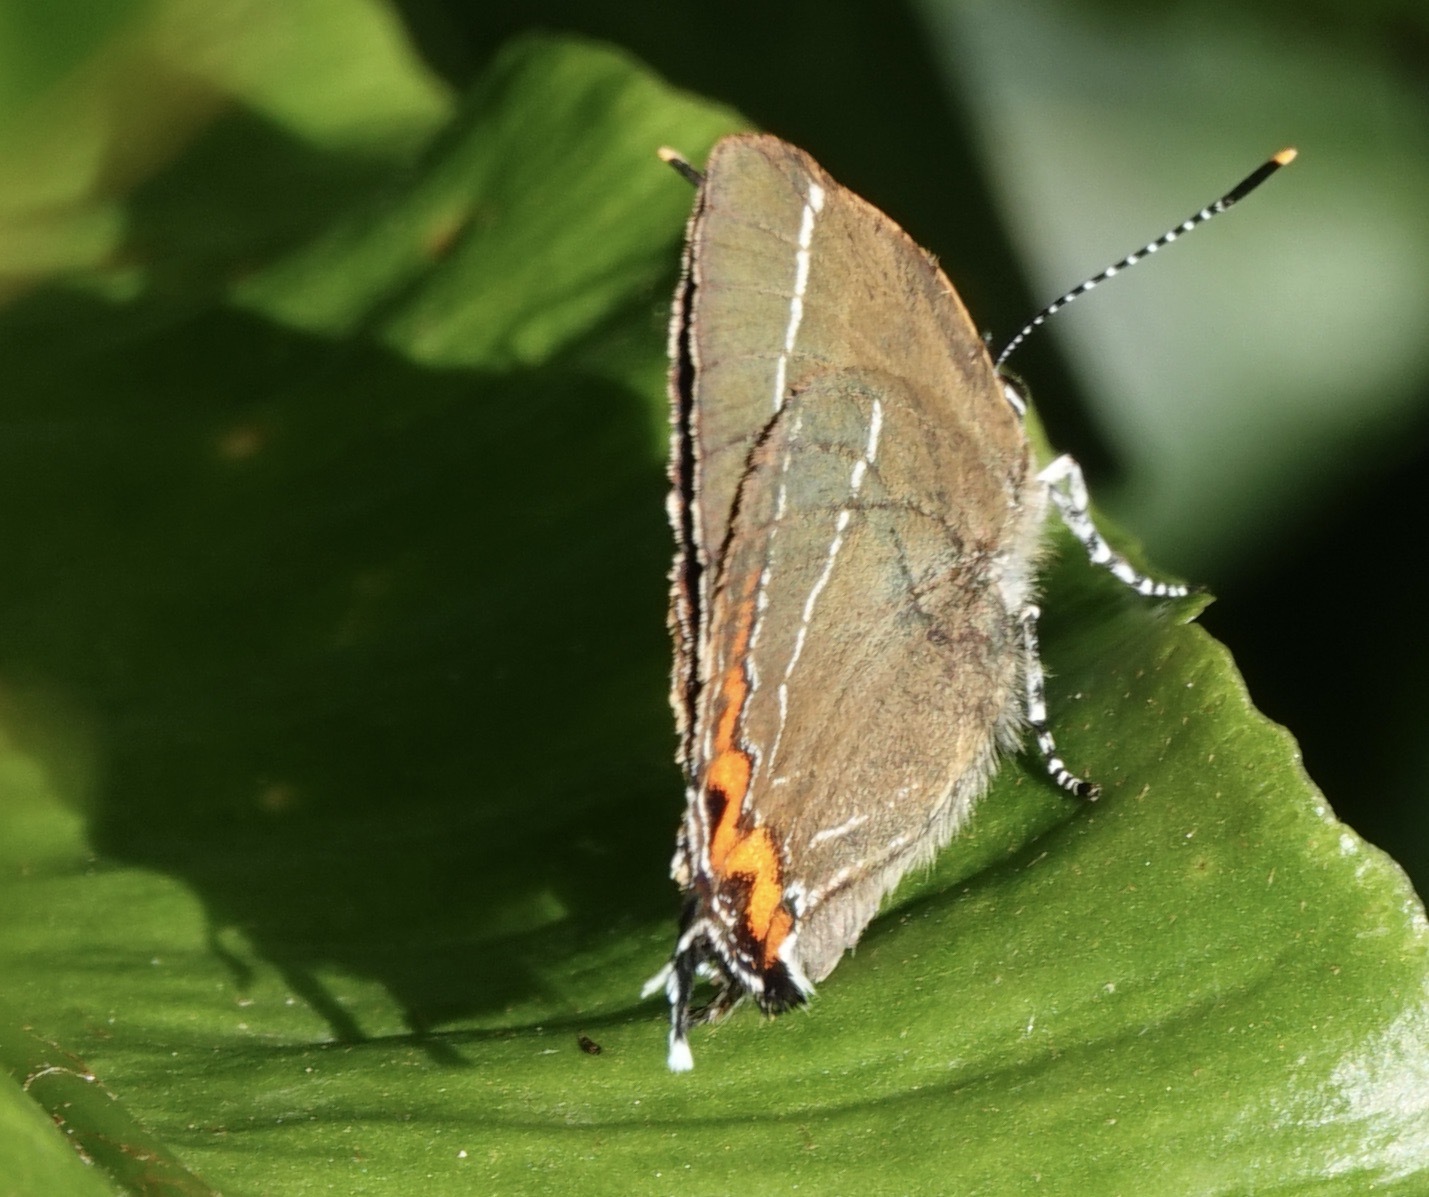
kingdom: Animalia
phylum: Arthropoda
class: Insecta
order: Lepidoptera
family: Lycaenidae
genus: Satyrium
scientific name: Satyrium w-album
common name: White-letter hairstreak
